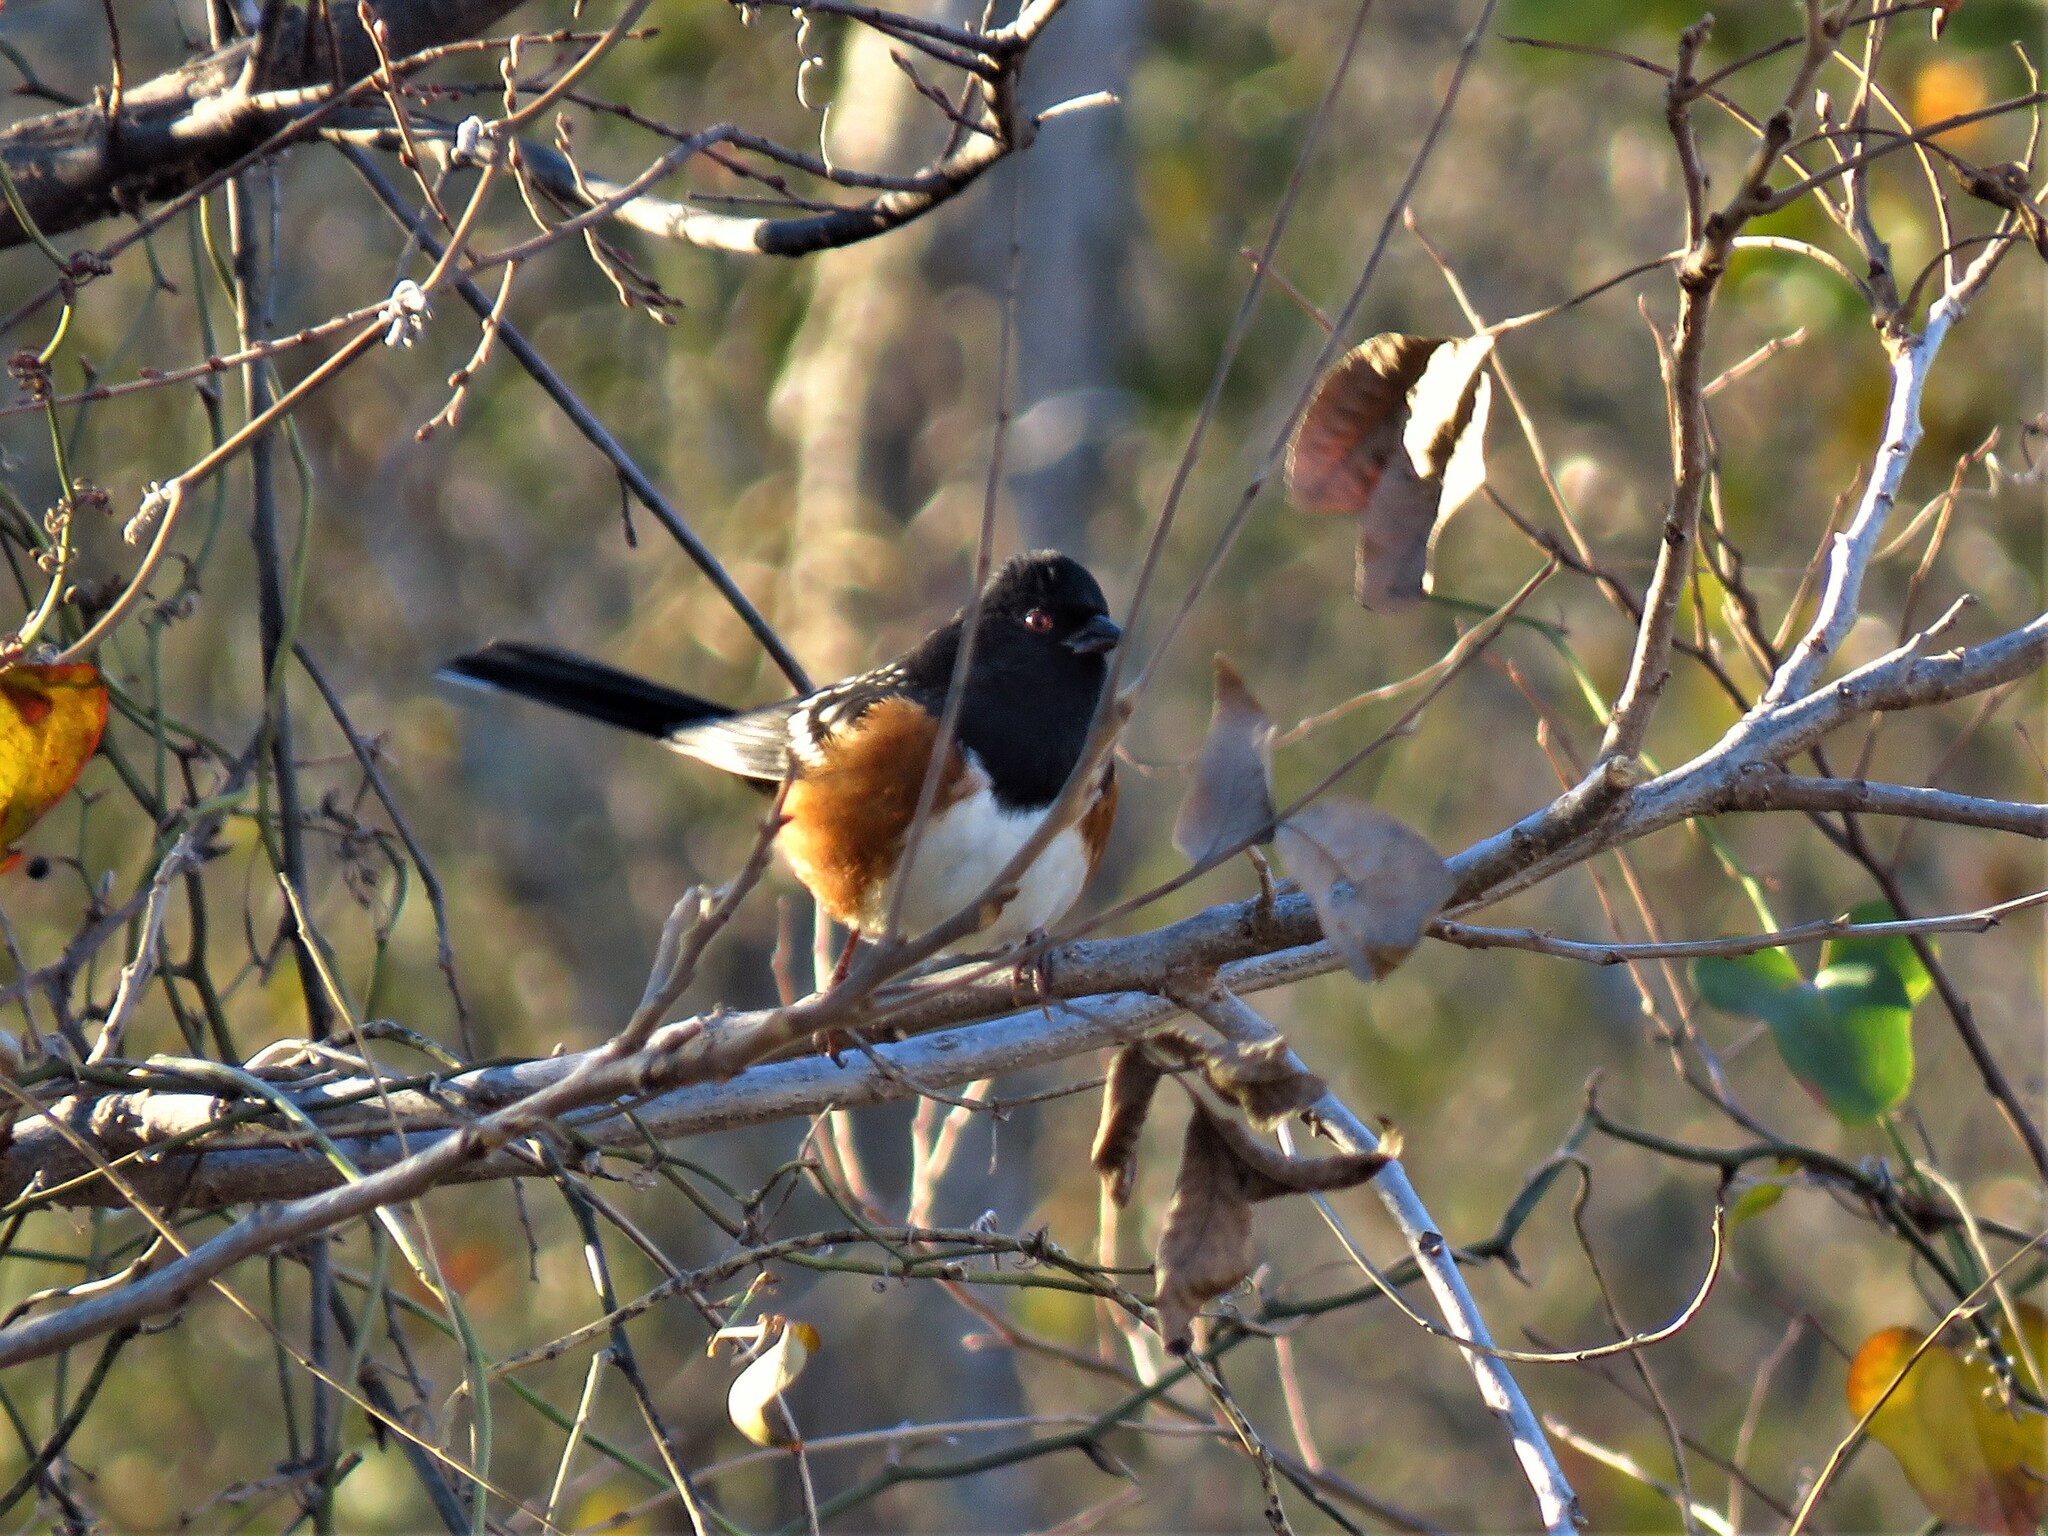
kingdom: Animalia
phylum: Chordata
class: Aves
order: Passeriformes
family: Passerellidae
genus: Pipilo
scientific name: Pipilo maculatus
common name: Spotted towhee
